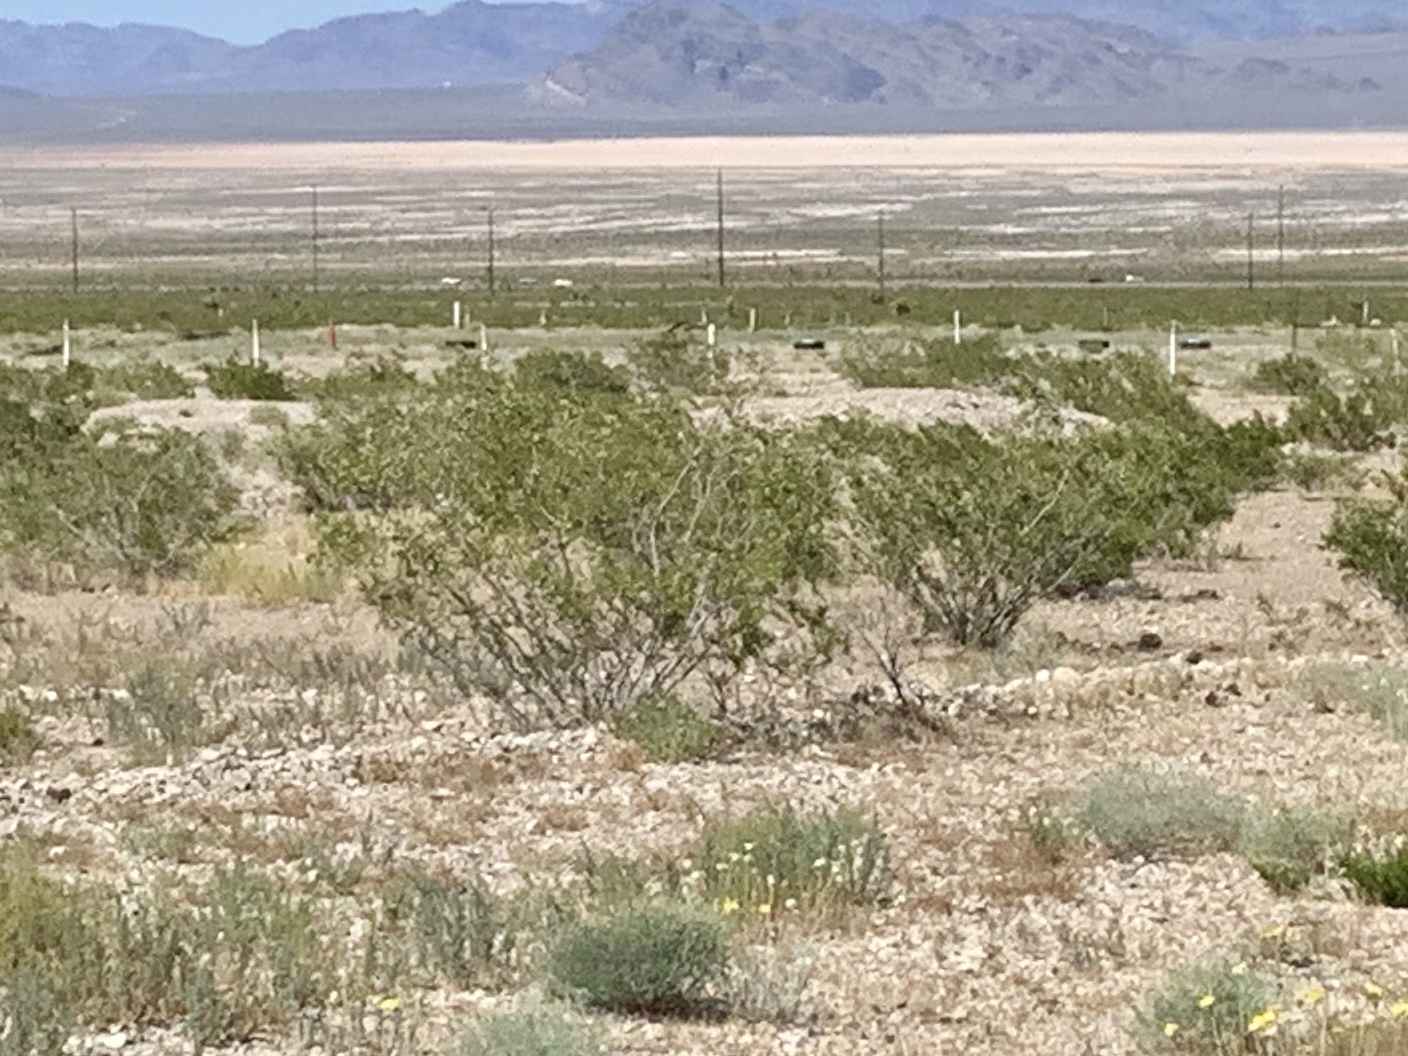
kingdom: Plantae
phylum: Tracheophyta
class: Magnoliopsida
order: Zygophyllales
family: Zygophyllaceae
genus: Larrea
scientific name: Larrea tridentata
